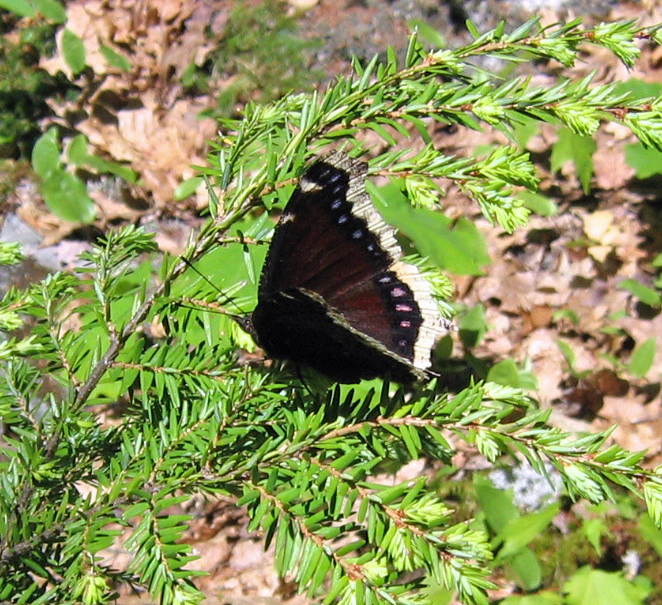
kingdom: Animalia
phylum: Arthropoda
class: Insecta
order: Lepidoptera
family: Nymphalidae
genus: Nymphalis
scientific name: Nymphalis antiopa
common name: Camberwell beauty
